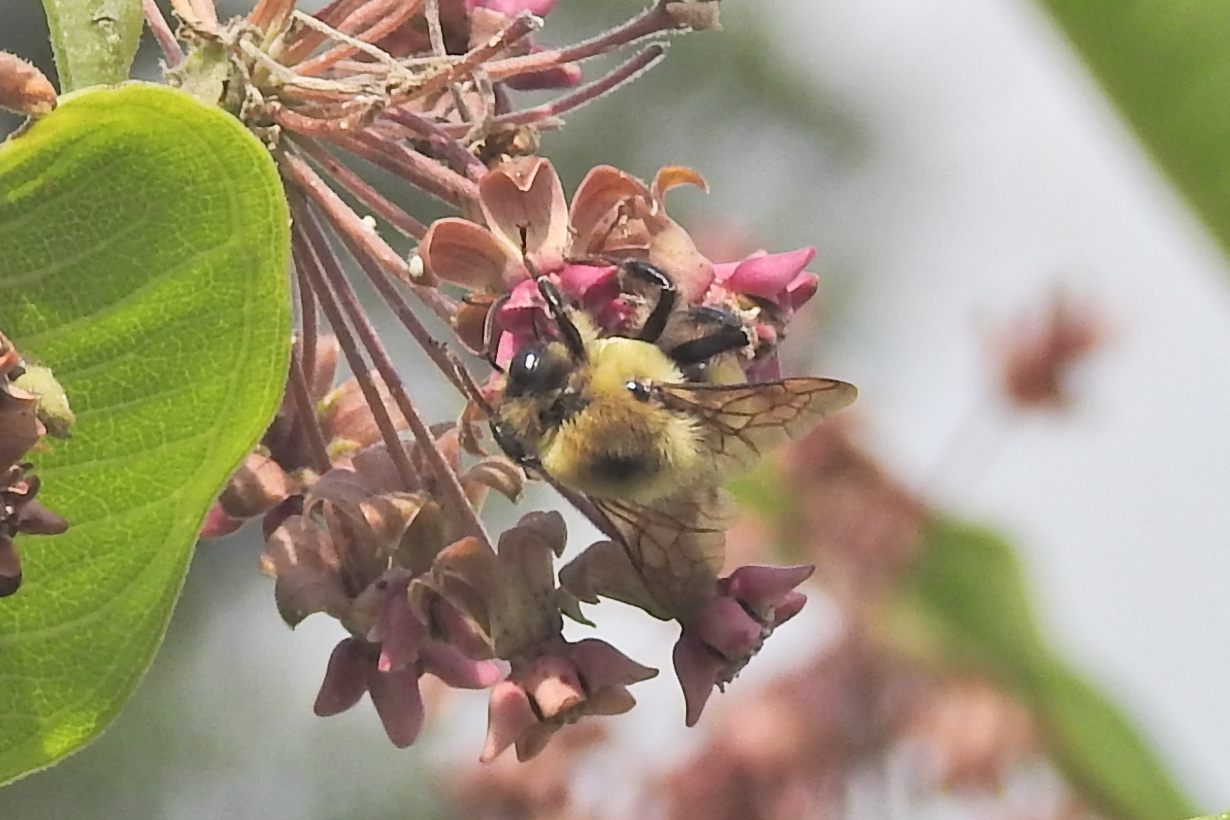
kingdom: Animalia
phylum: Arthropoda
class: Insecta
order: Hymenoptera
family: Apidae
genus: Bombus
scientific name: Bombus griseocollis
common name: Brown-belted bumble bee
